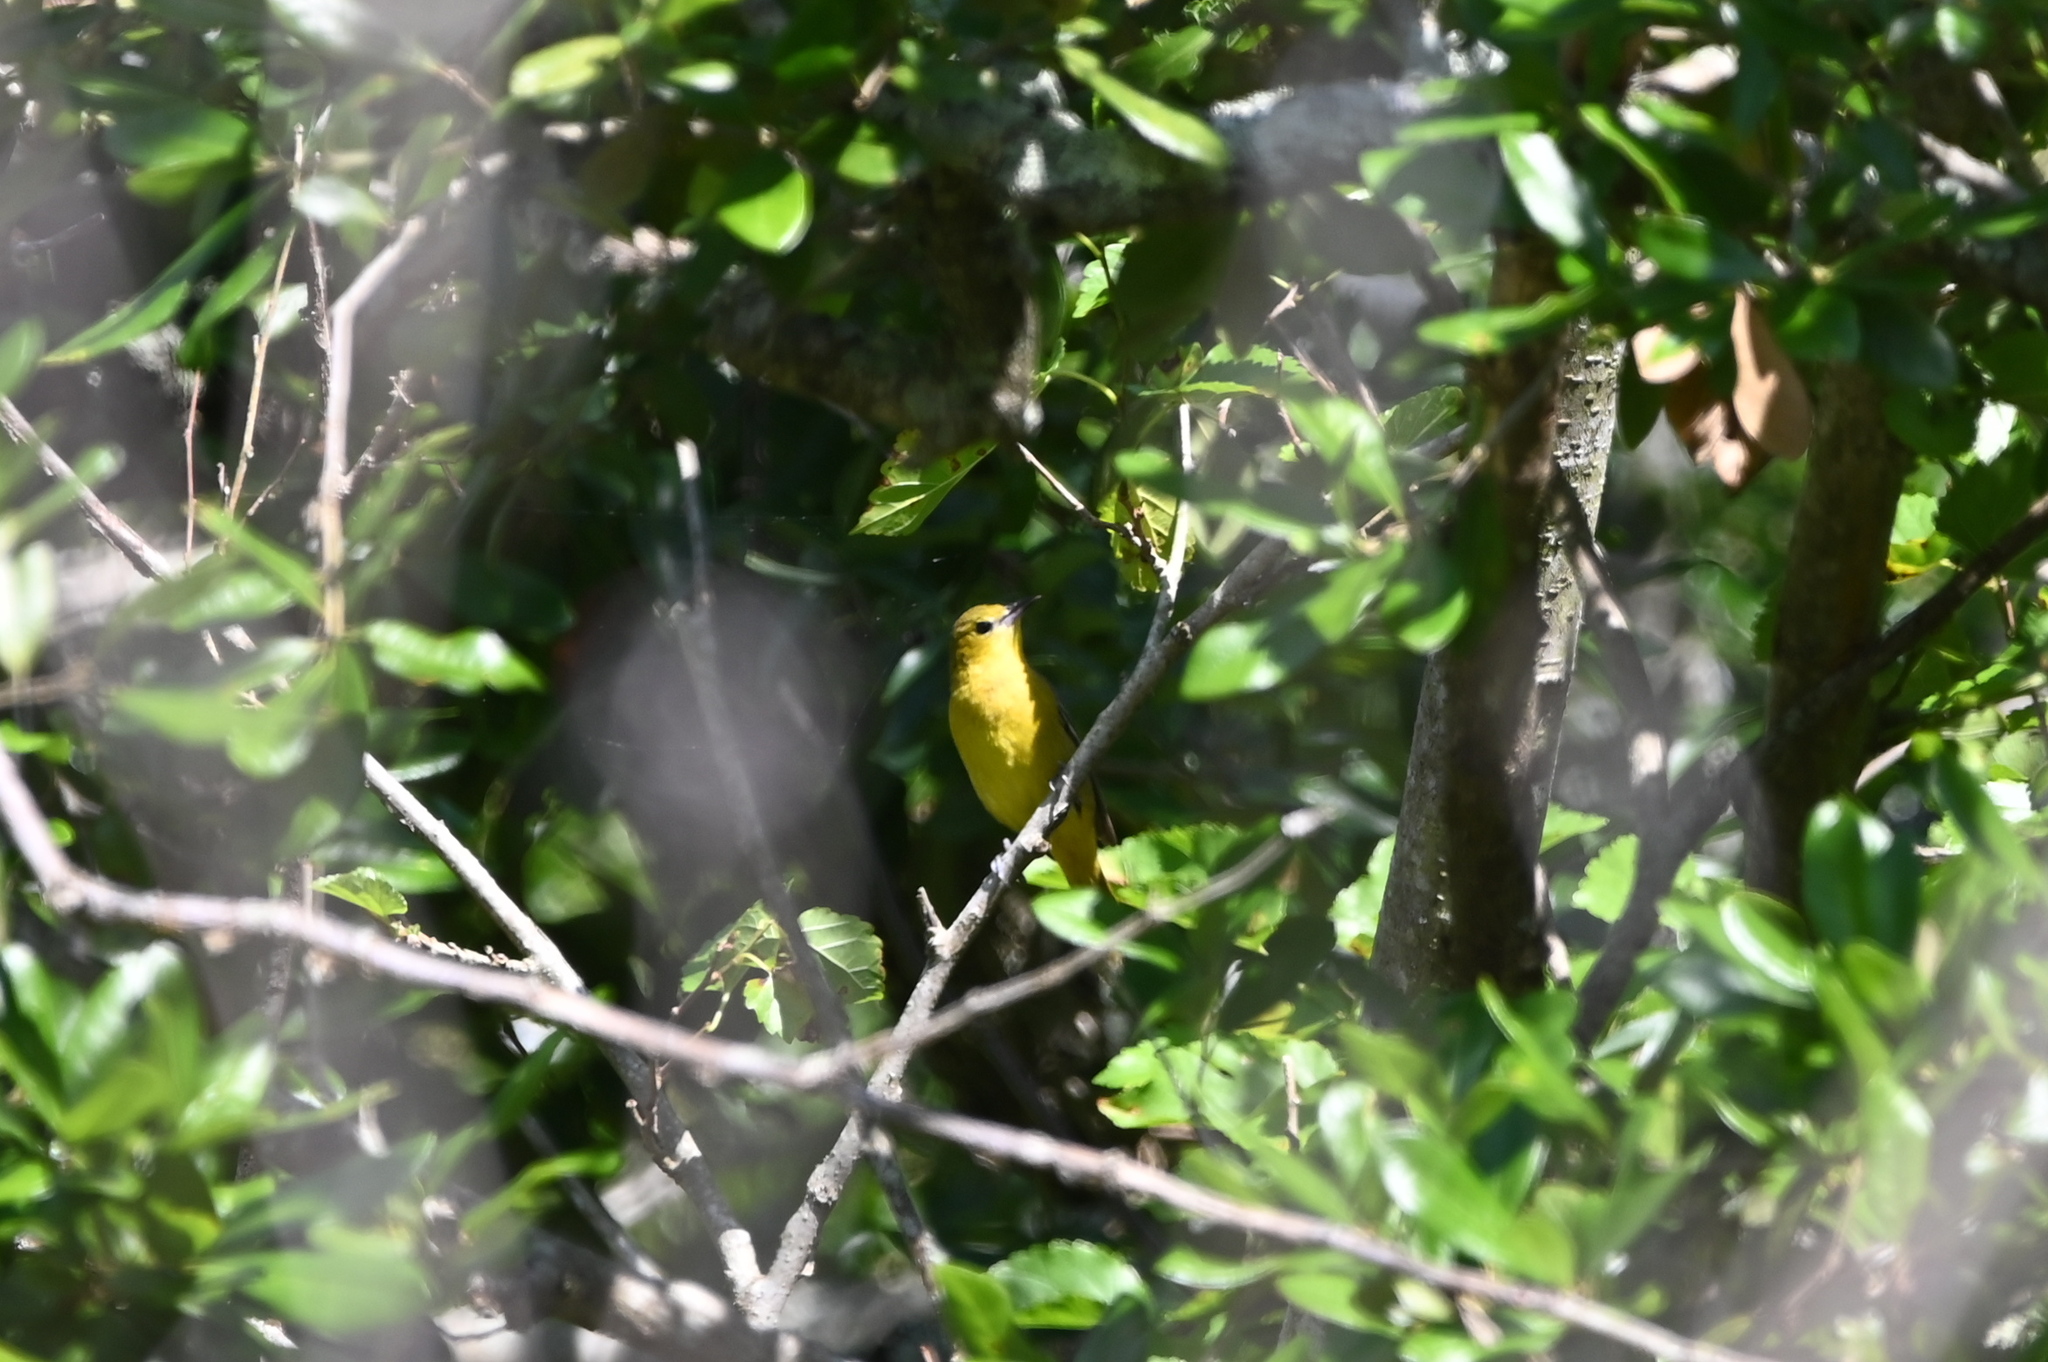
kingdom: Animalia
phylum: Chordata
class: Aves
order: Passeriformes
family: Icteridae
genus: Icterus
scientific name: Icterus spurius
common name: Orchard oriole
